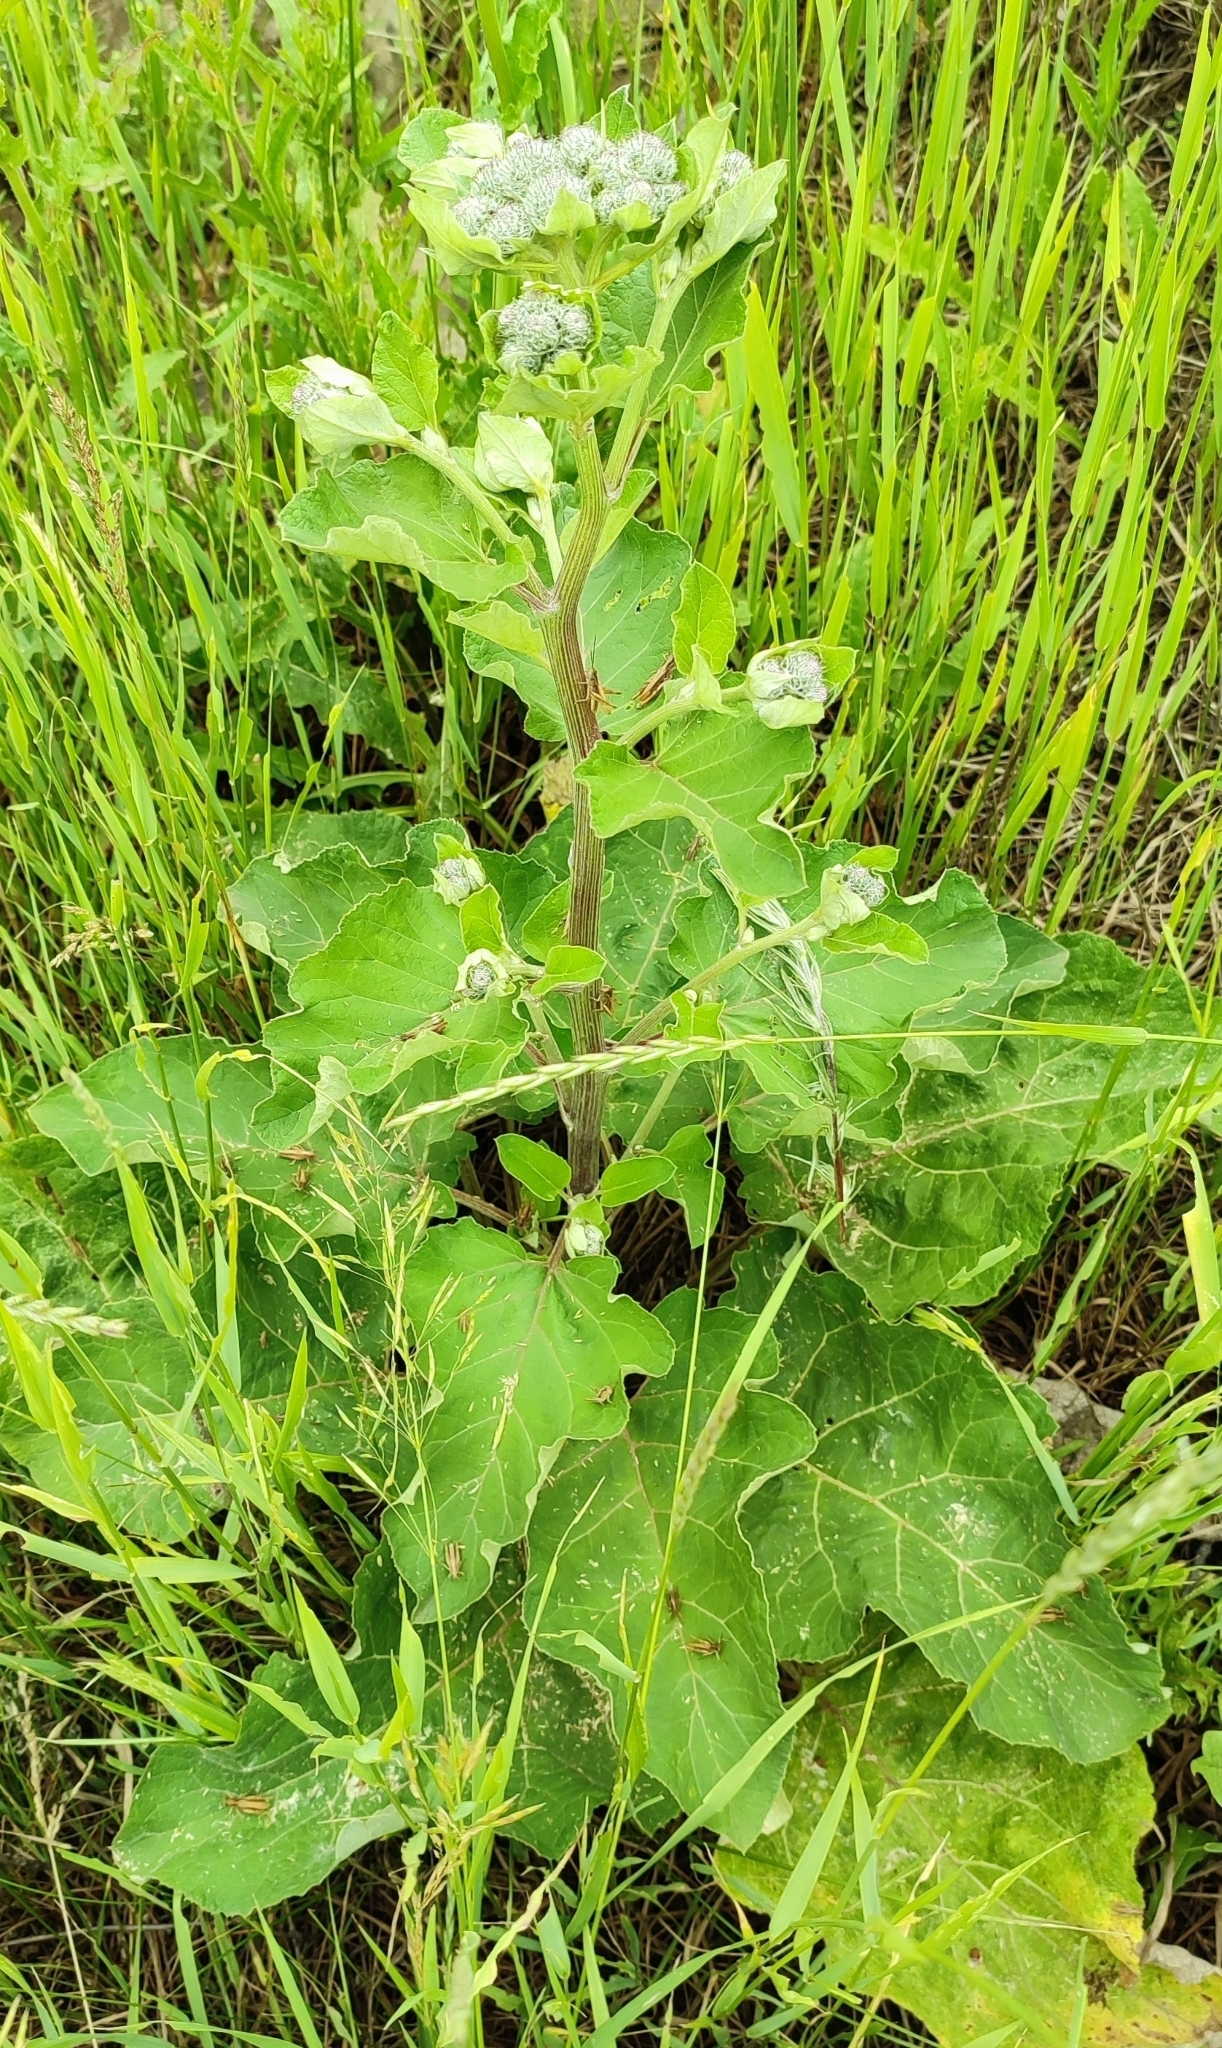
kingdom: Plantae
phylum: Tracheophyta
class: Magnoliopsida
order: Asterales
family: Asteraceae
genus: Arctium
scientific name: Arctium tomentosum
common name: Woolly burdock
